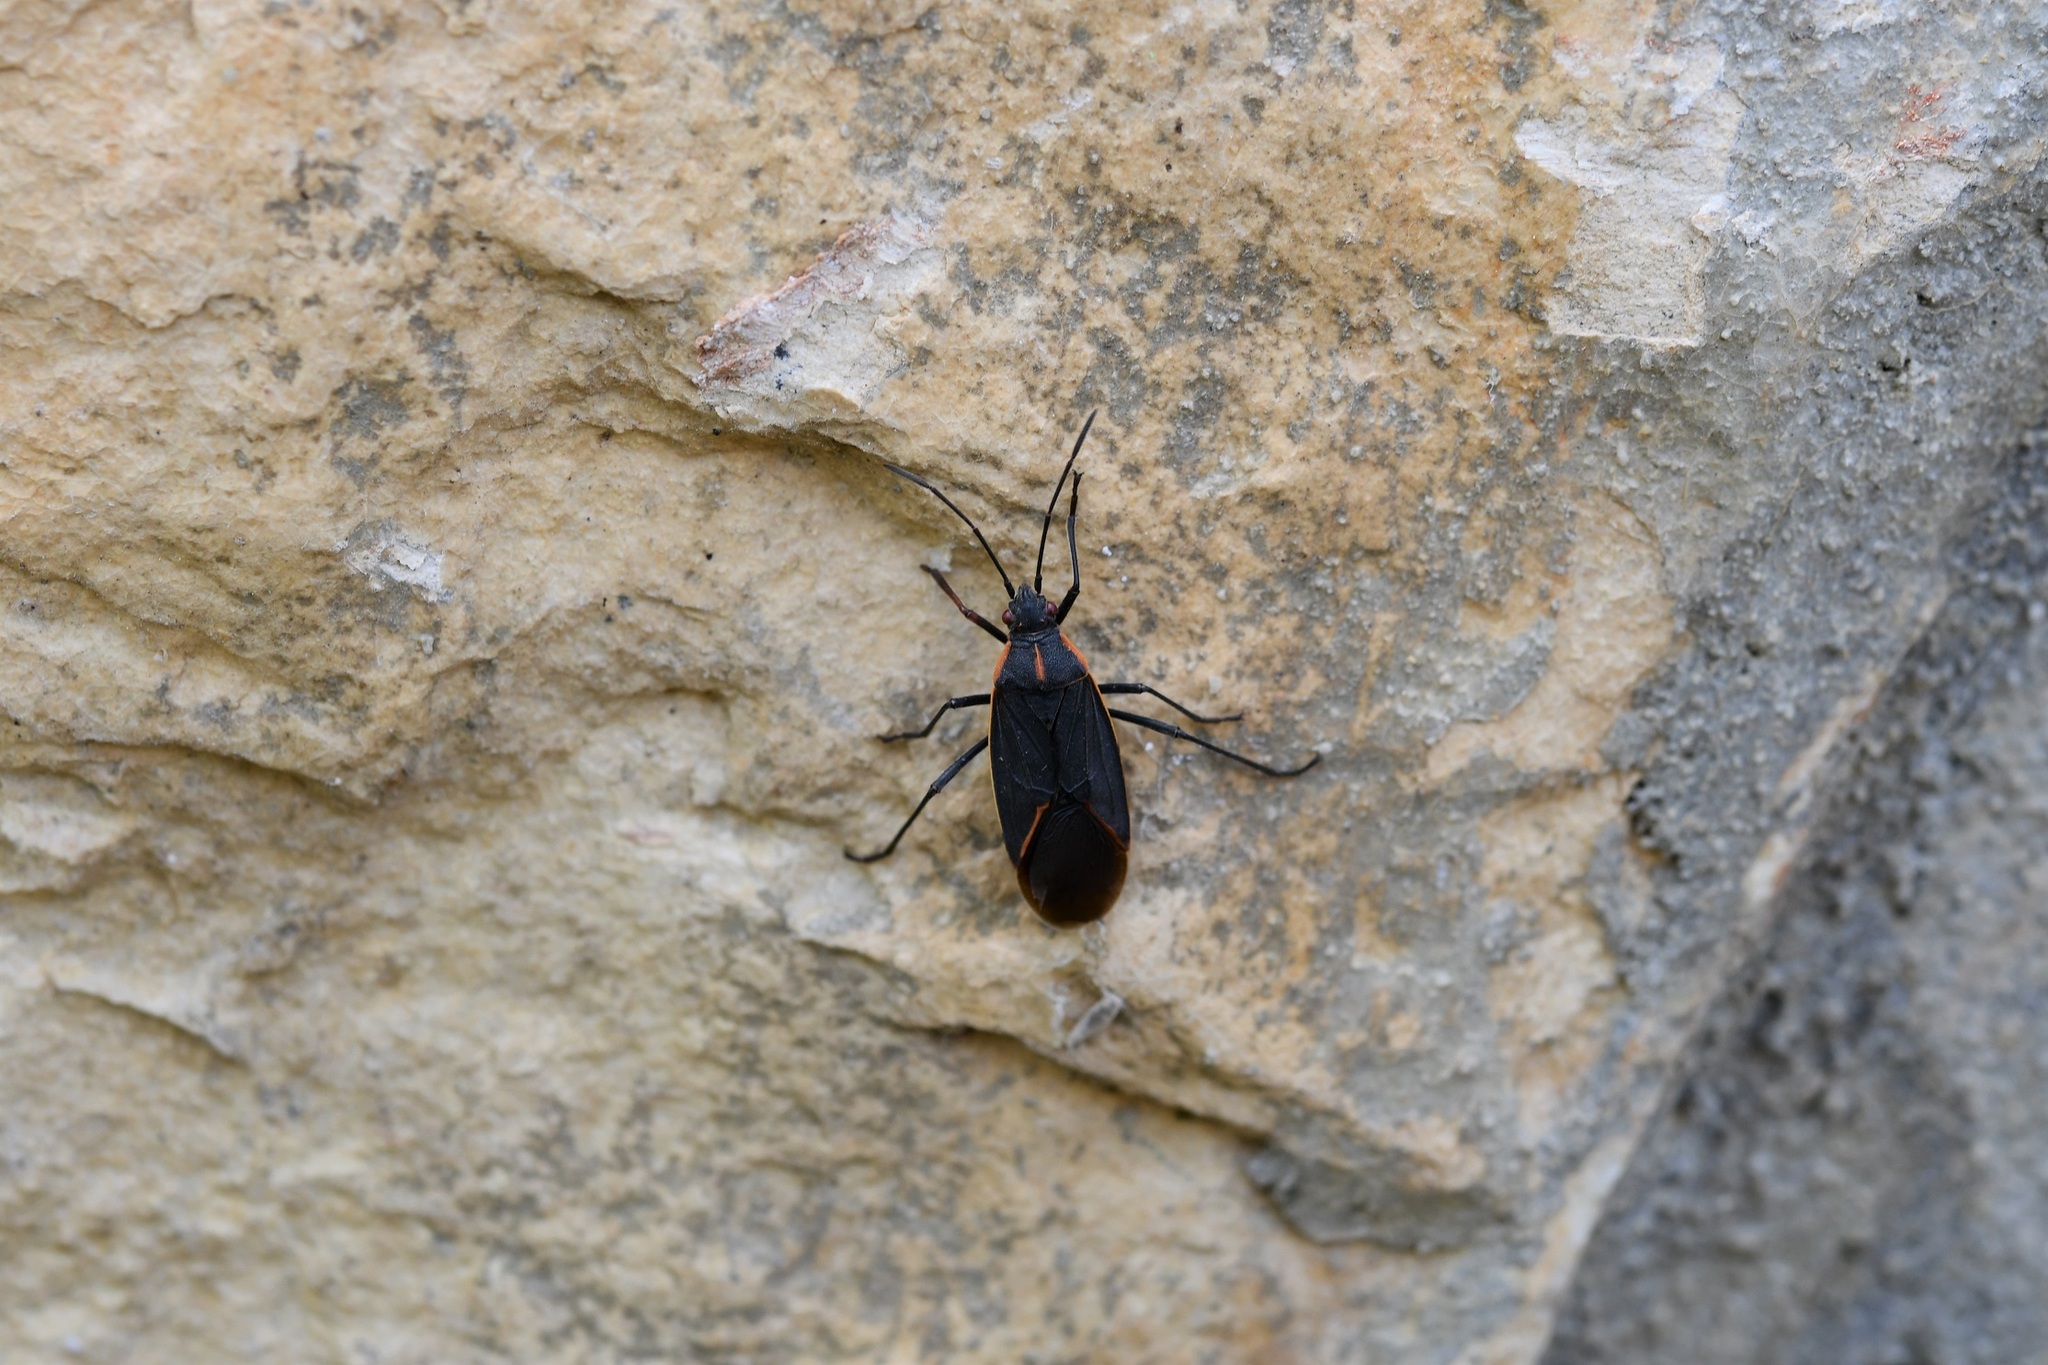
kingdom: Animalia
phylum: Arthropoda
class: Insecta
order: Hemiptera
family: Rhopalidae
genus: Boisea
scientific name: Boisea trivittata
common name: Boxelder bug
